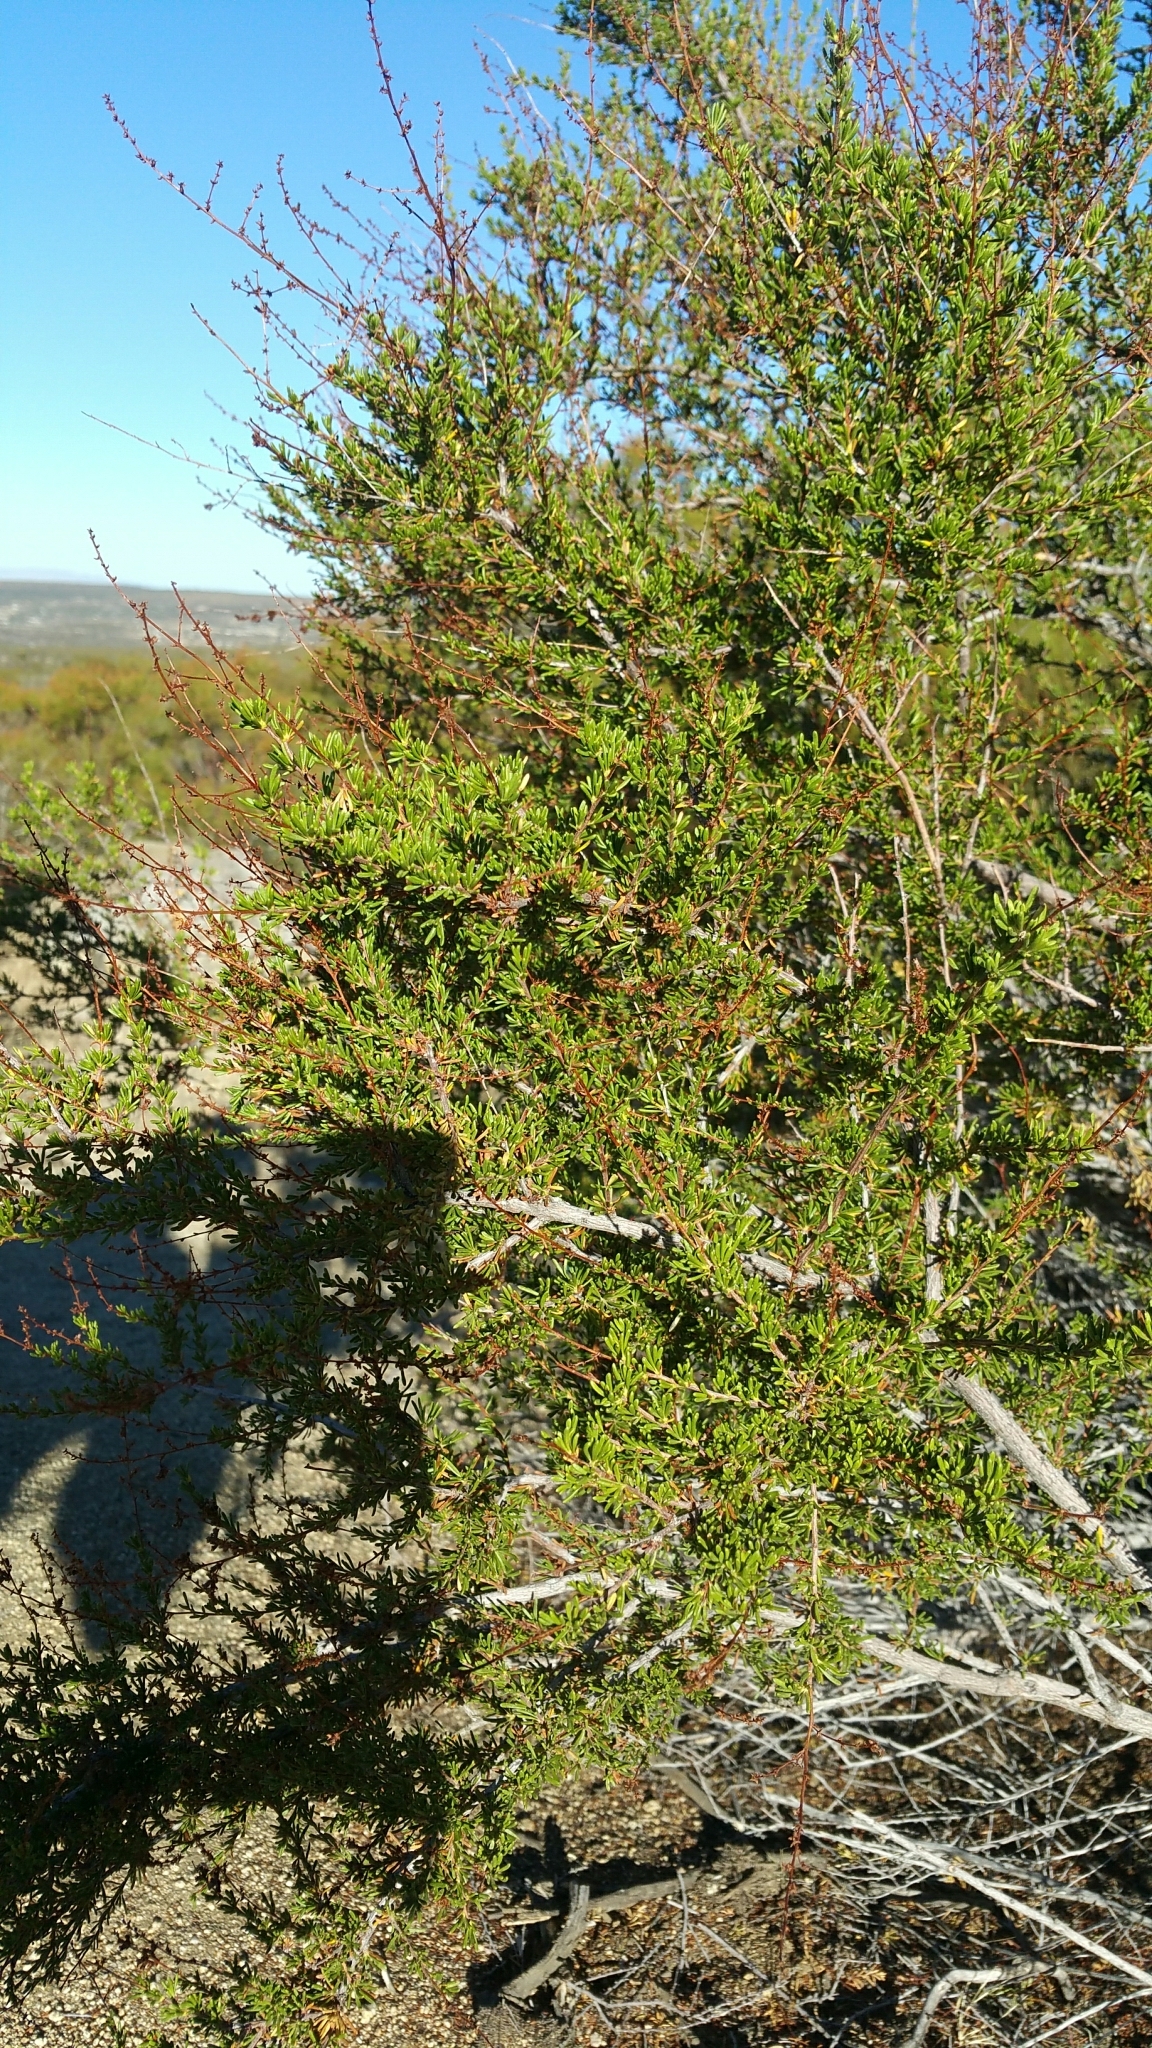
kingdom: Plantae
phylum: Tracheophyta
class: Magnoliopsida
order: Rosales
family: Rosaceae
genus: Adenostoma
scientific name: Adenostoma fasciculatum
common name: Chamise
